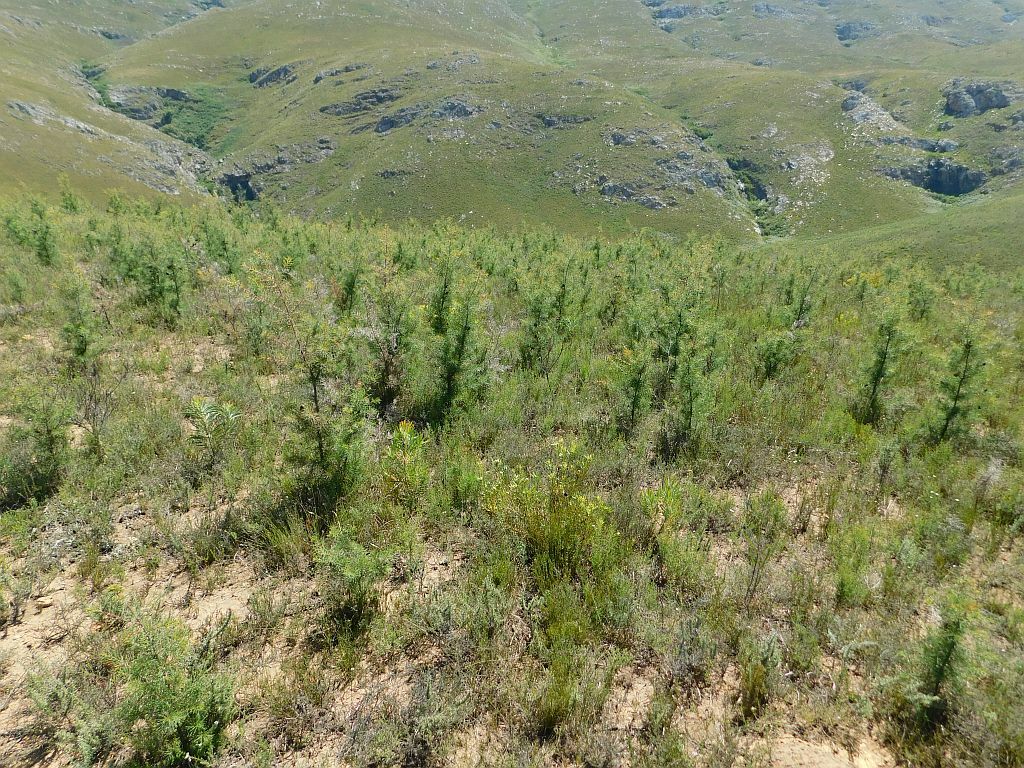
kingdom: Plantae
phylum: Tracheophyta
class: Magnoliopsida
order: Proteales
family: Proteaceae
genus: Hakea
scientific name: Hakea sericea
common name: Needle bush
